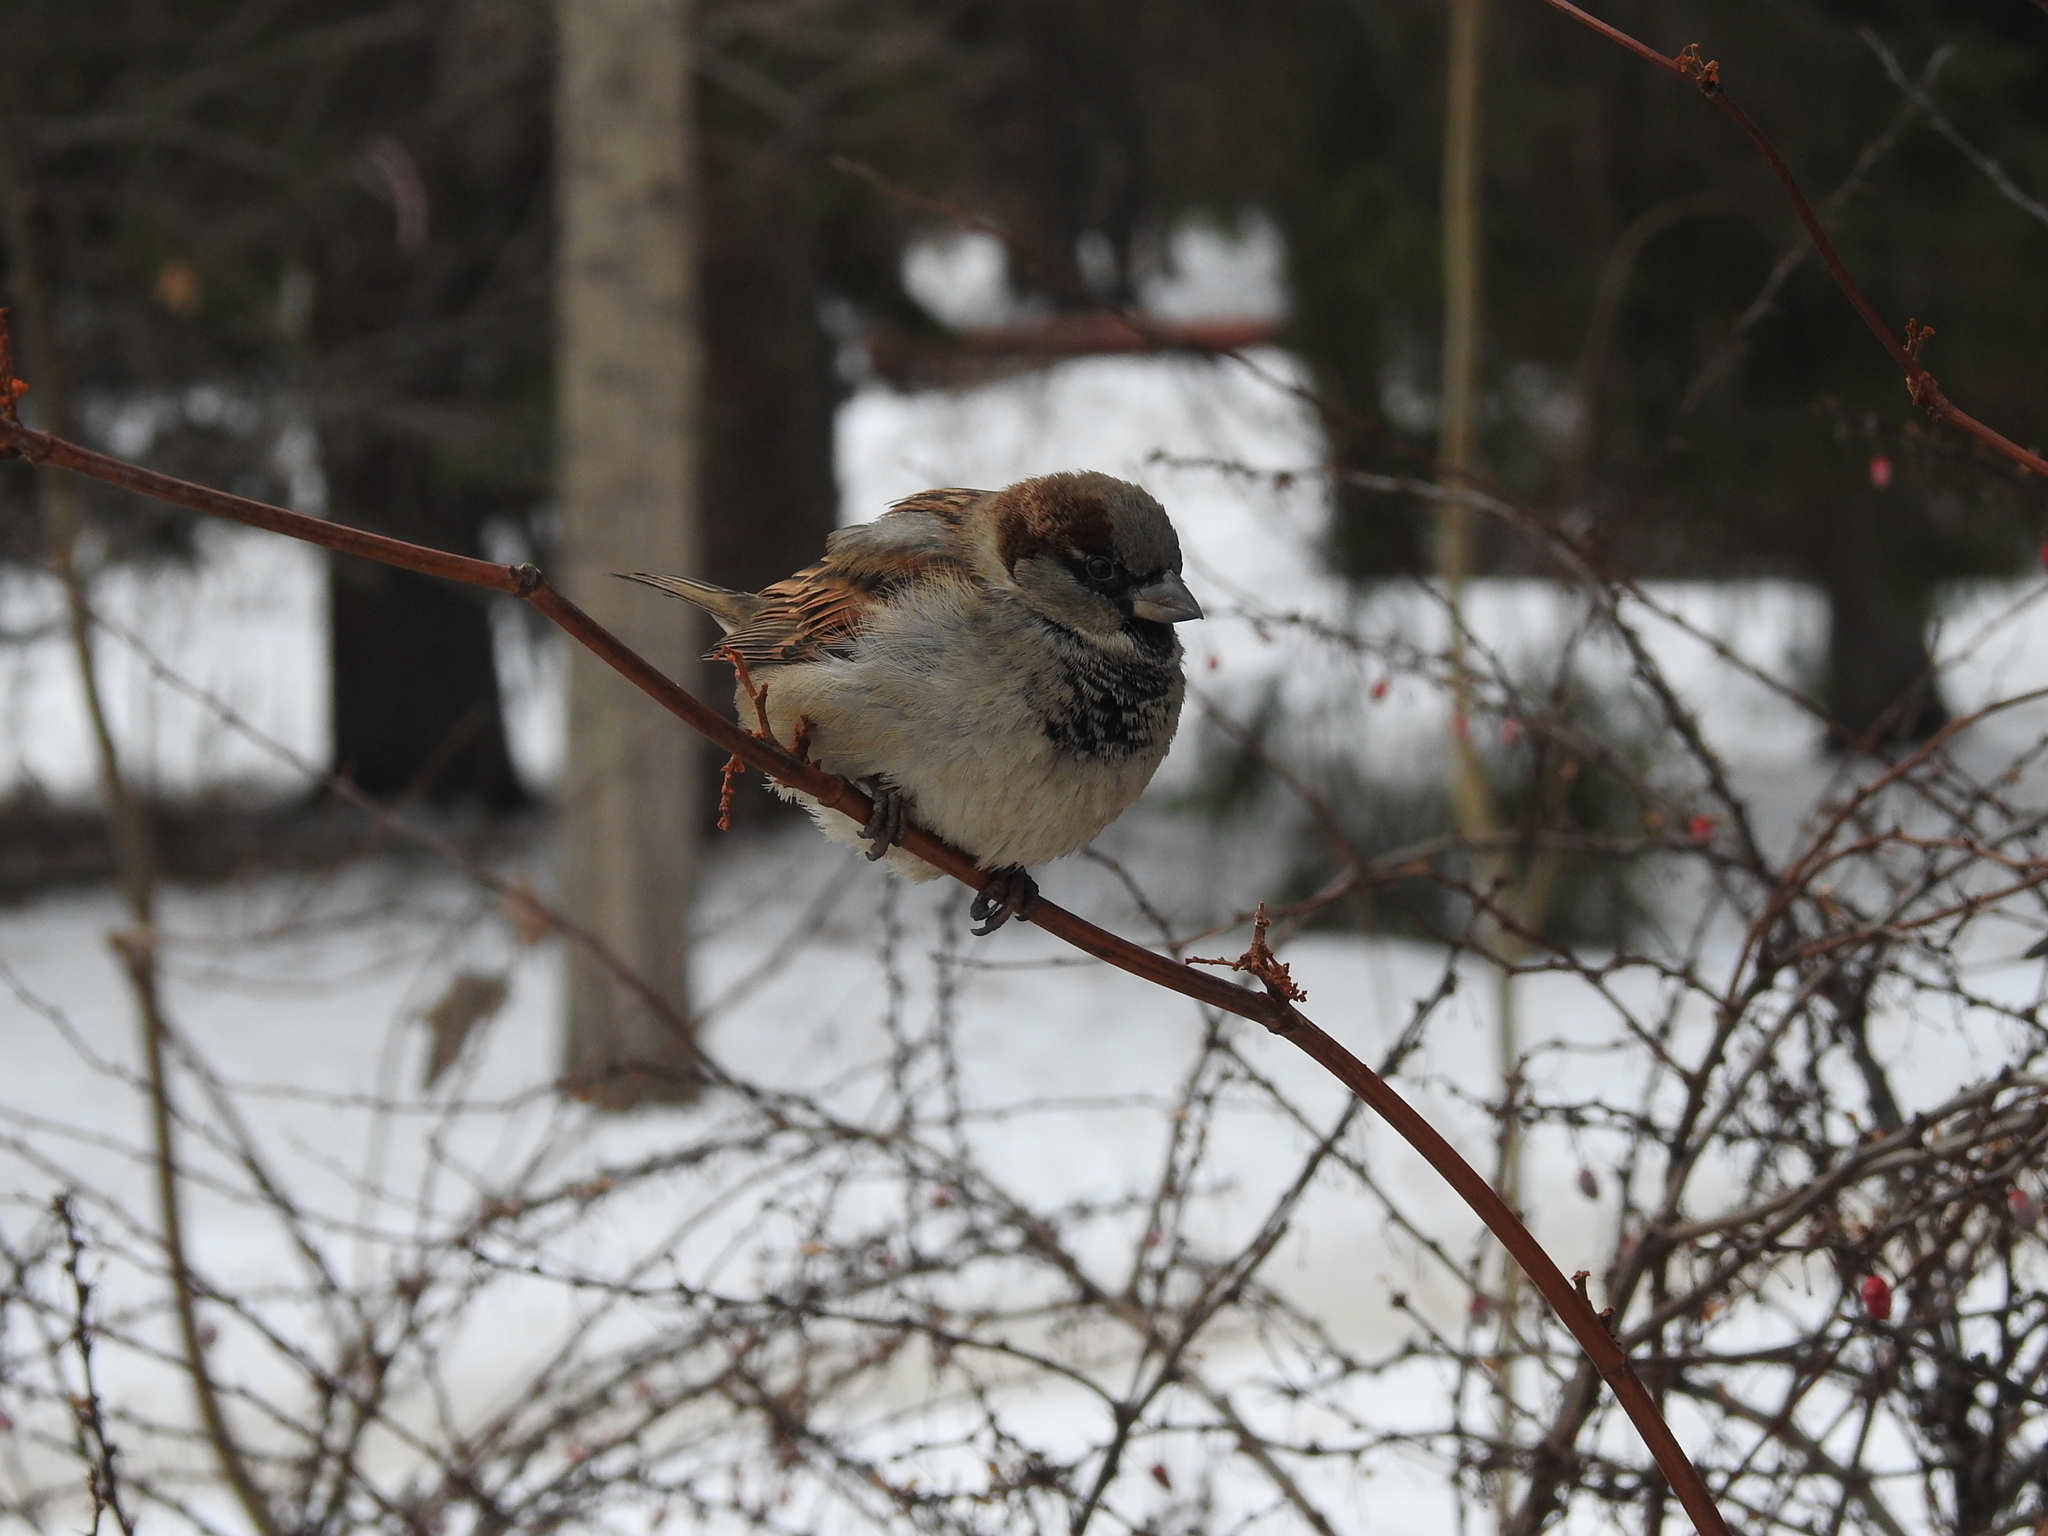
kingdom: Animalia
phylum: Chordata
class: Aves
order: Passeriformes
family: Passeridae
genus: Passer
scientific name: Passer domesticus
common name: House sparrow
